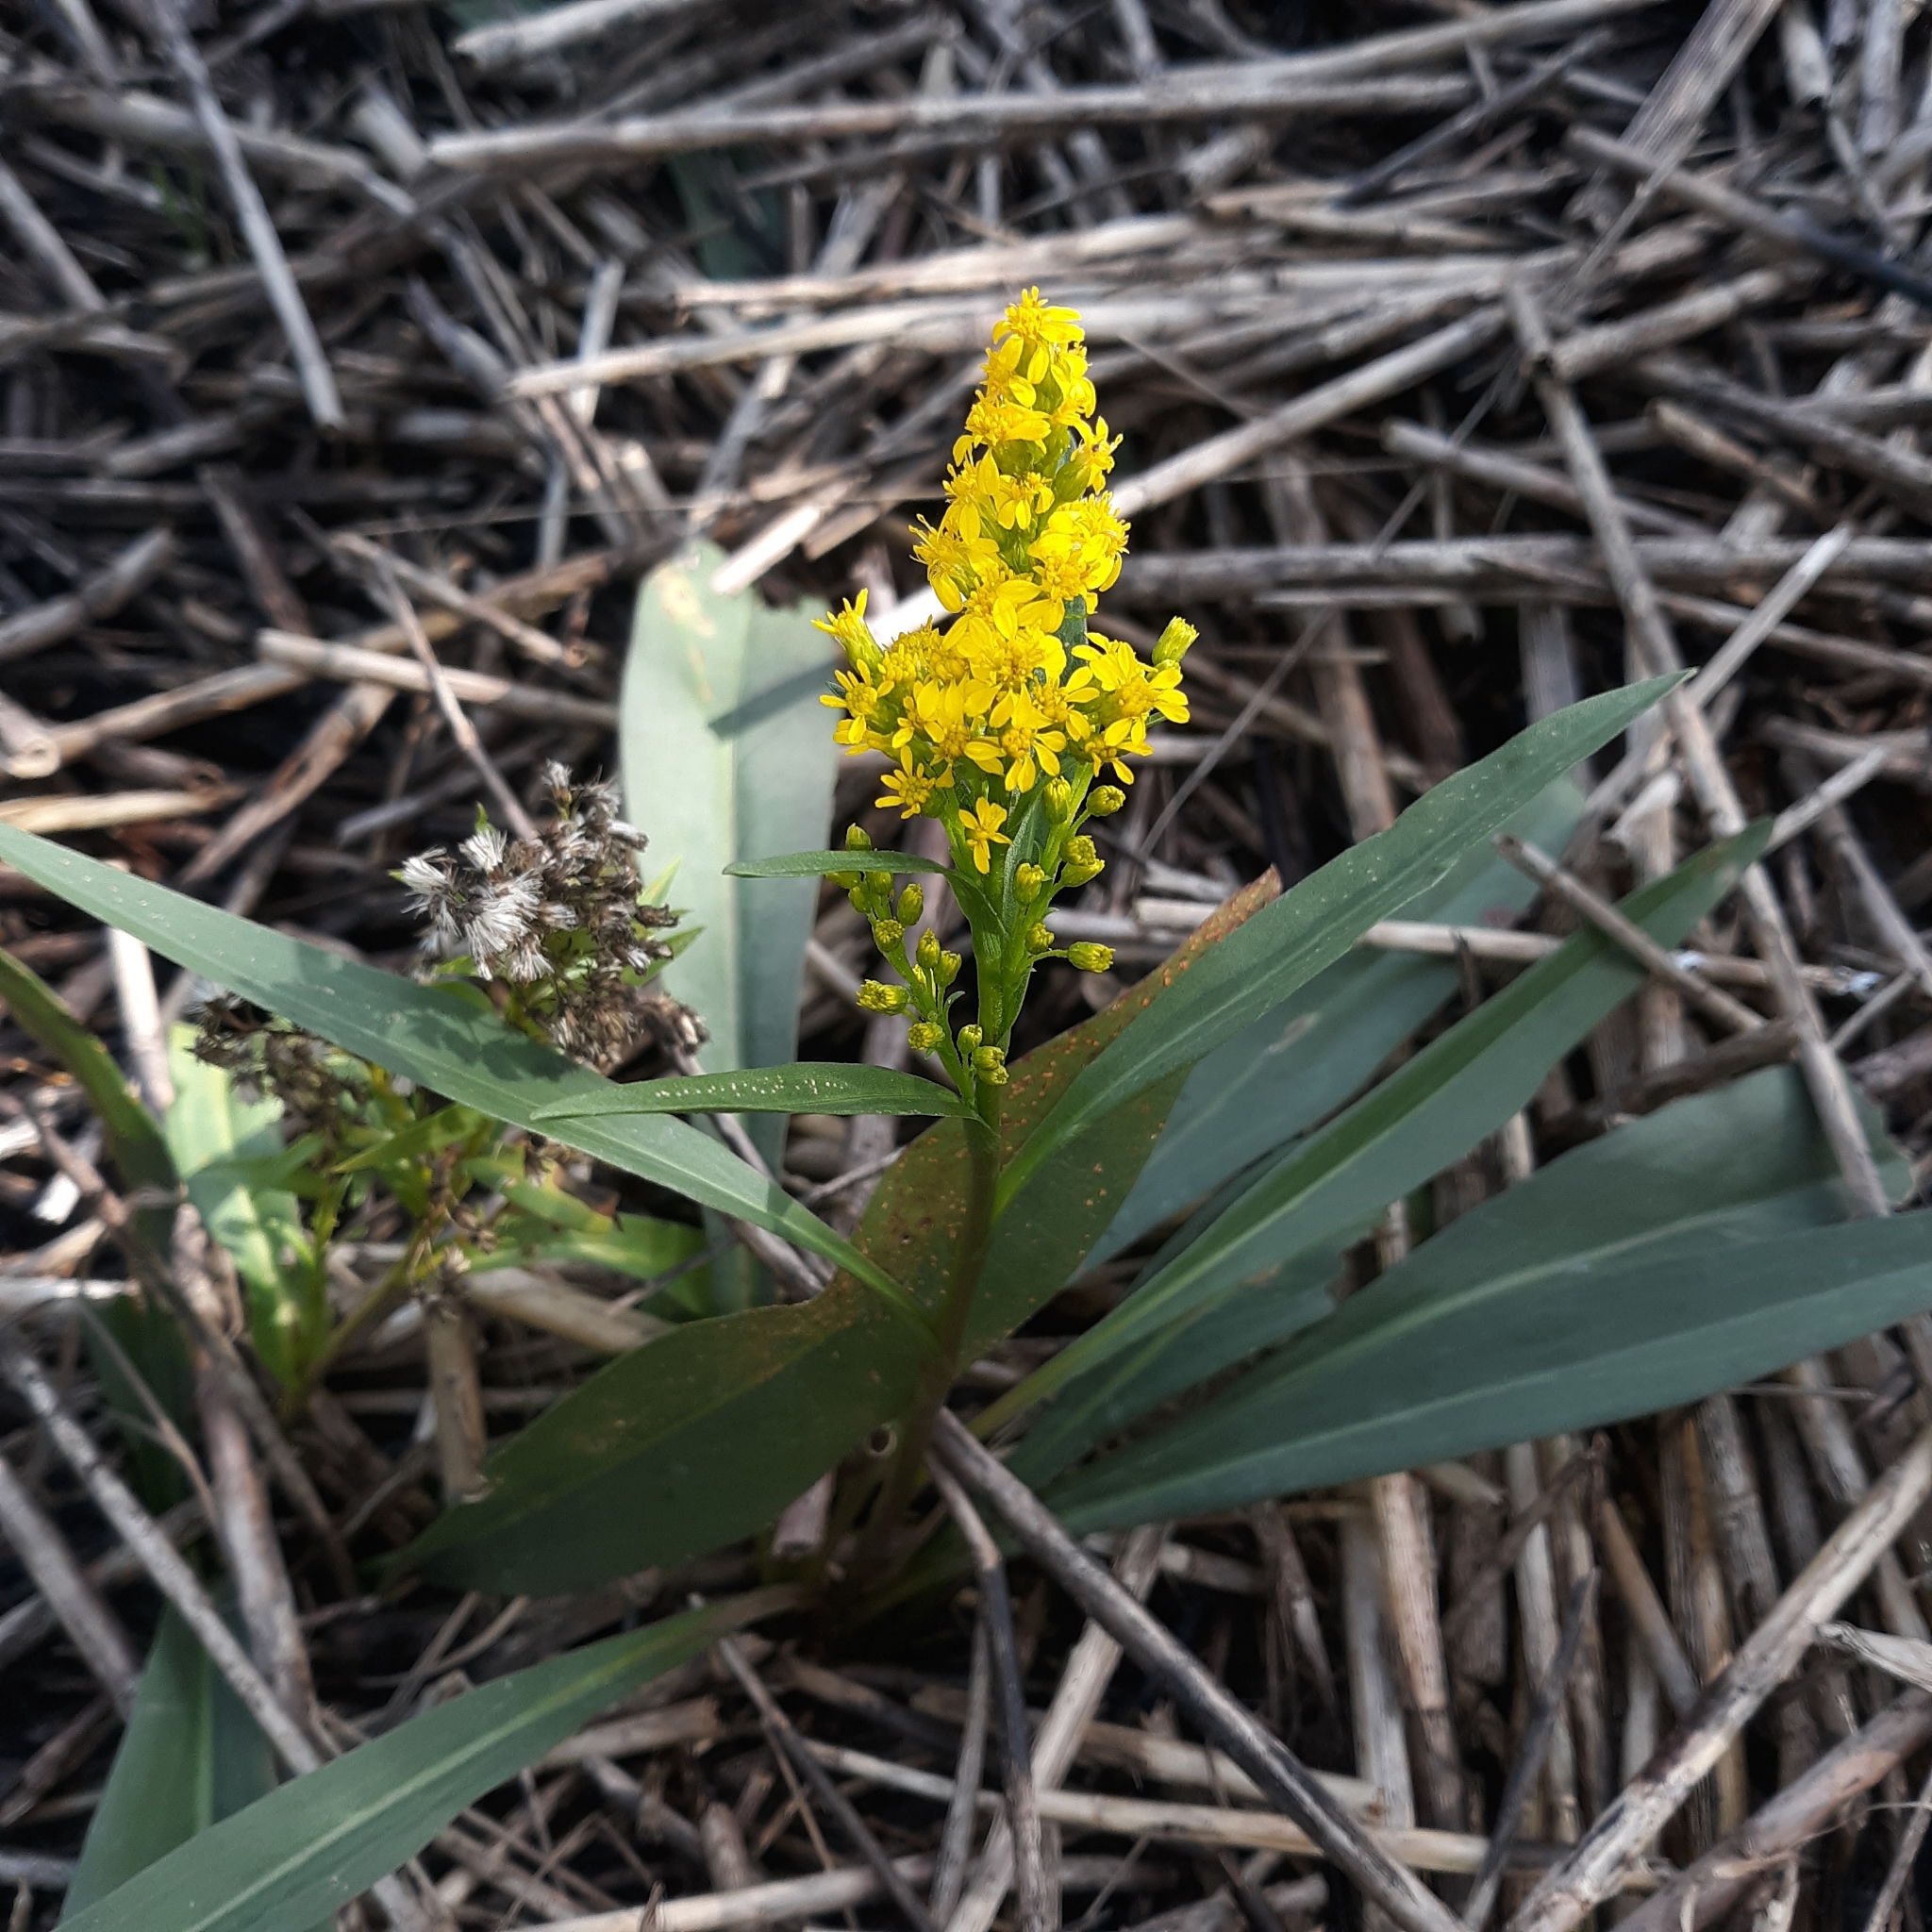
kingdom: Plantae
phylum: Tracheophyta
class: Magnoliopsida
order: Asterales
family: Asteraceae
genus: Solidago
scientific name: Solidago mexicana
